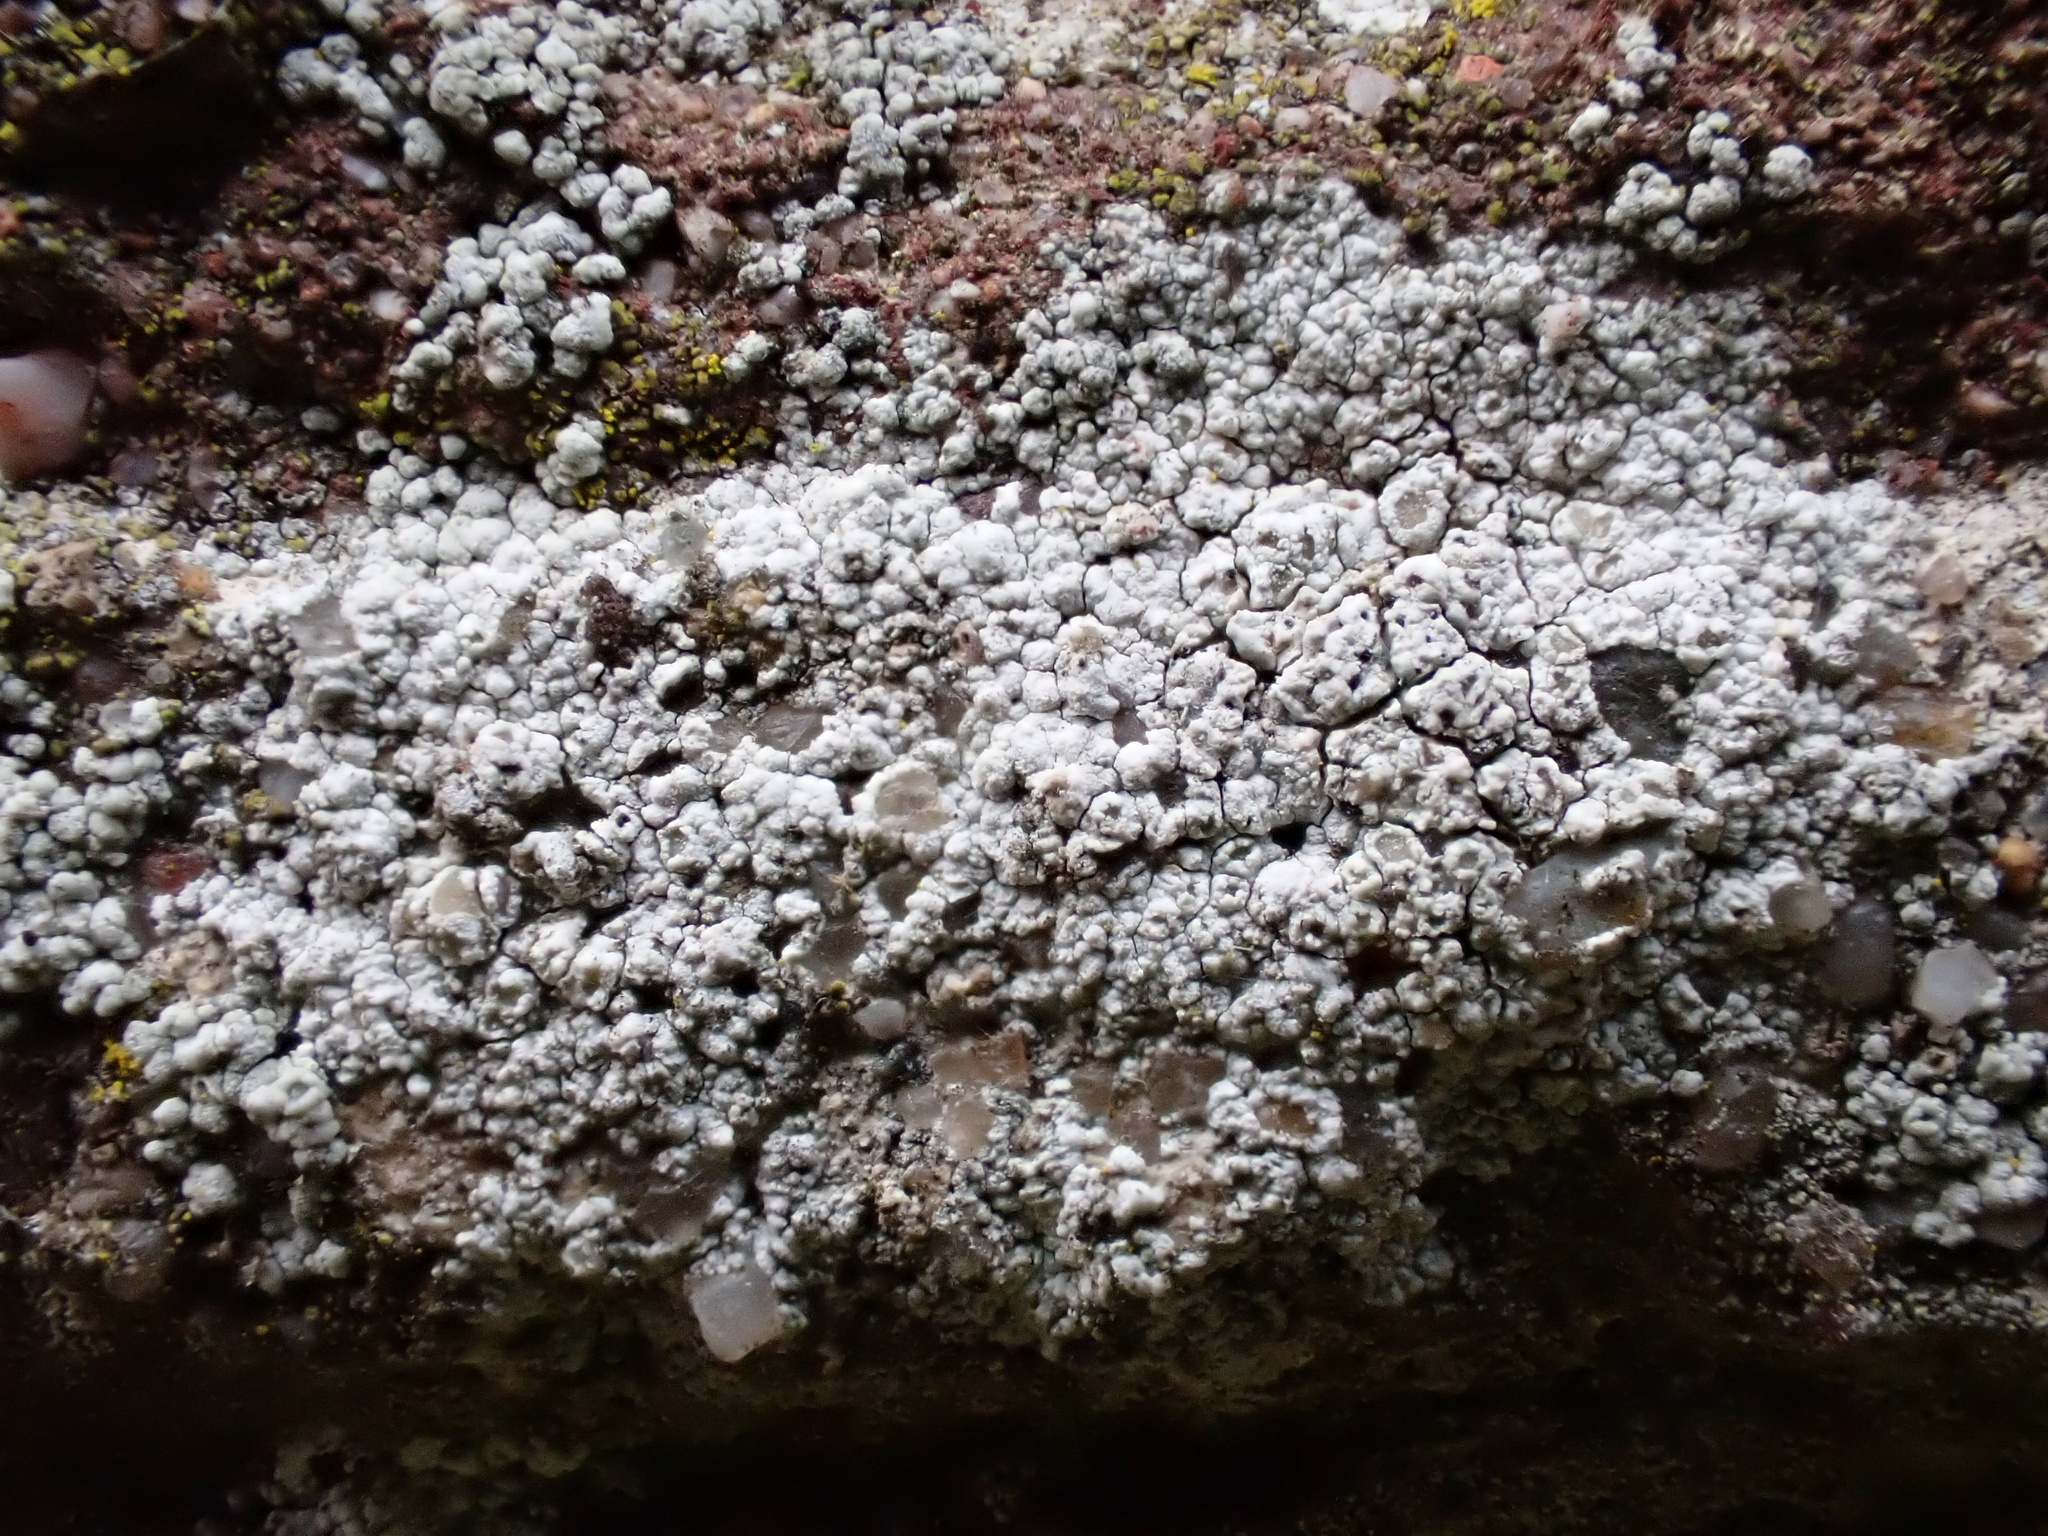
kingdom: Fungi
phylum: Ascomycota
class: Lecanoromycetes
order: Lecanorales
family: Lecanoraceae
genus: Polyozosia
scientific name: Polyozosia albescens
